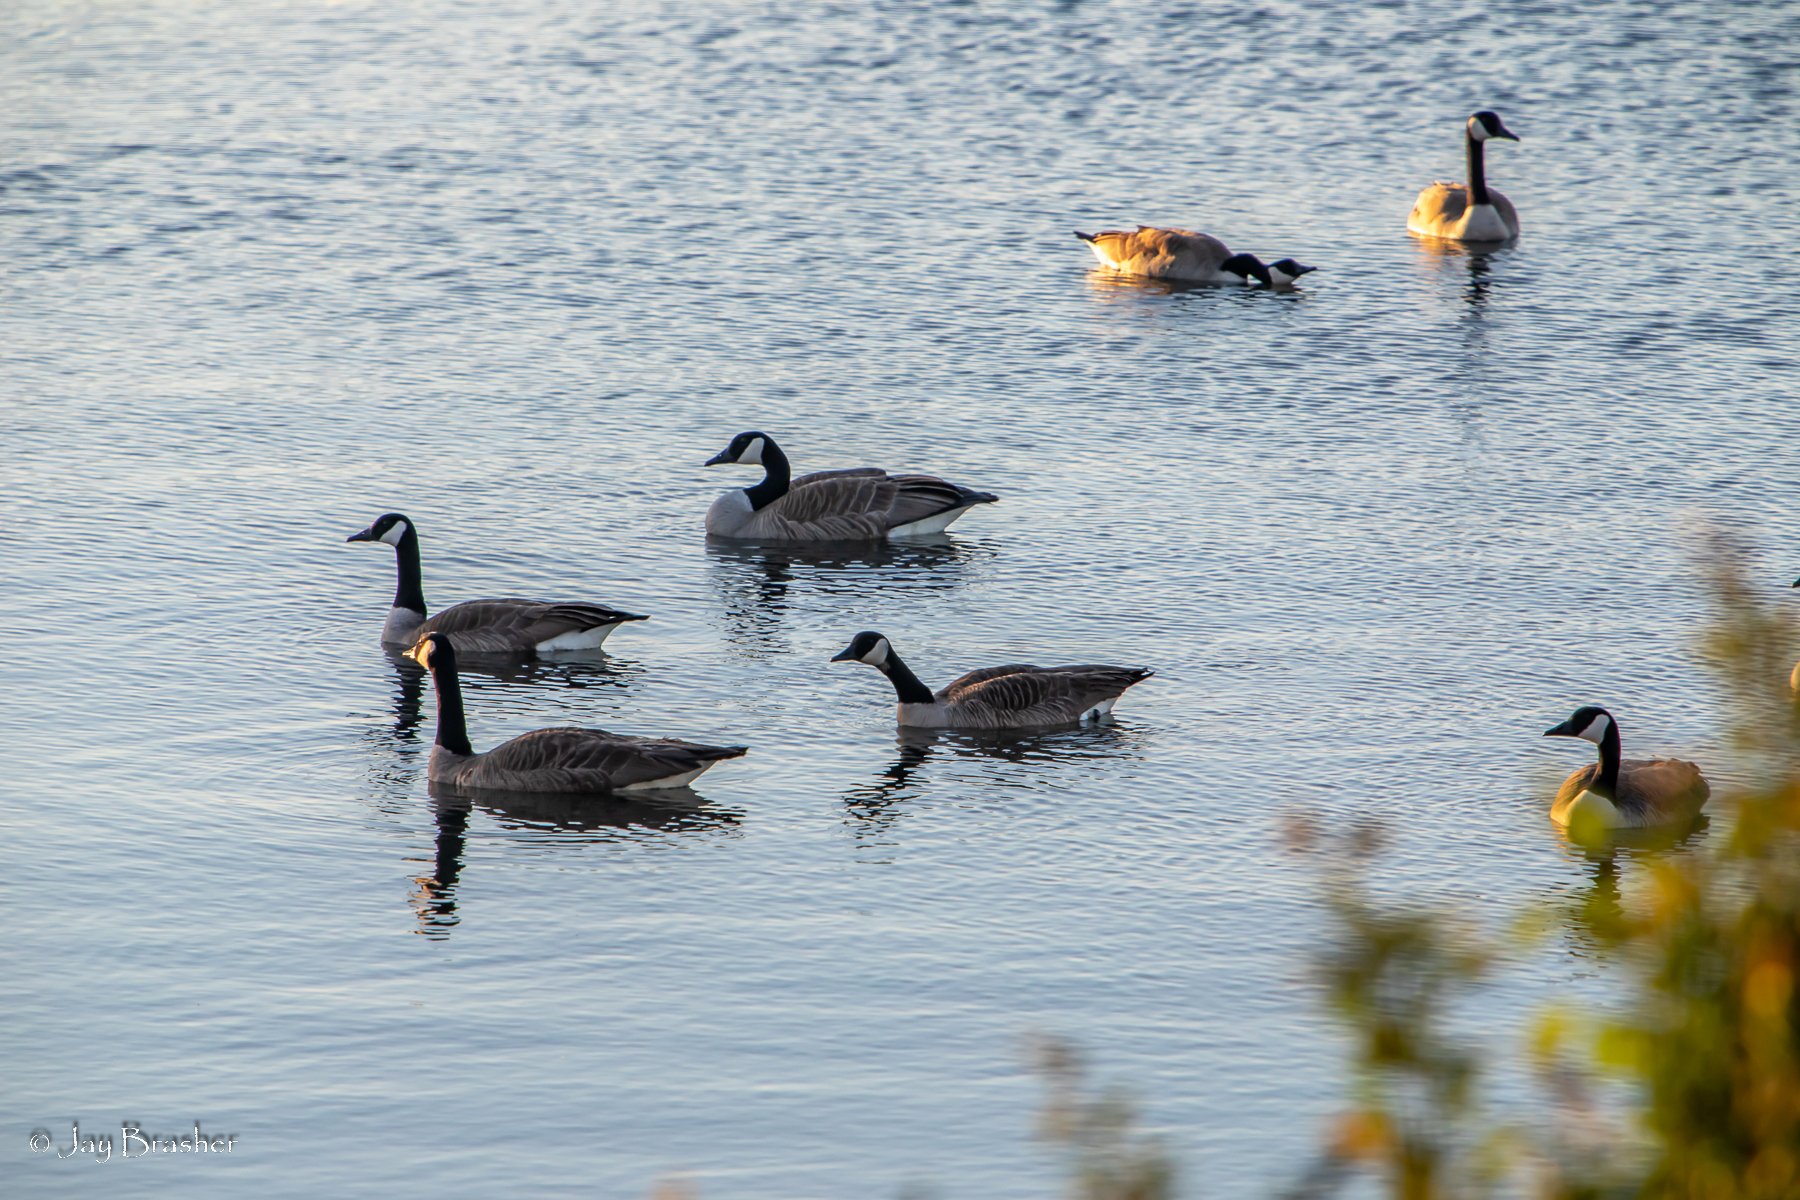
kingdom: Animalia
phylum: Chordata
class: Aves
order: Anseriformes
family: Anatidae
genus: Branta
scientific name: Branta canadensis
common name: Canada goose
